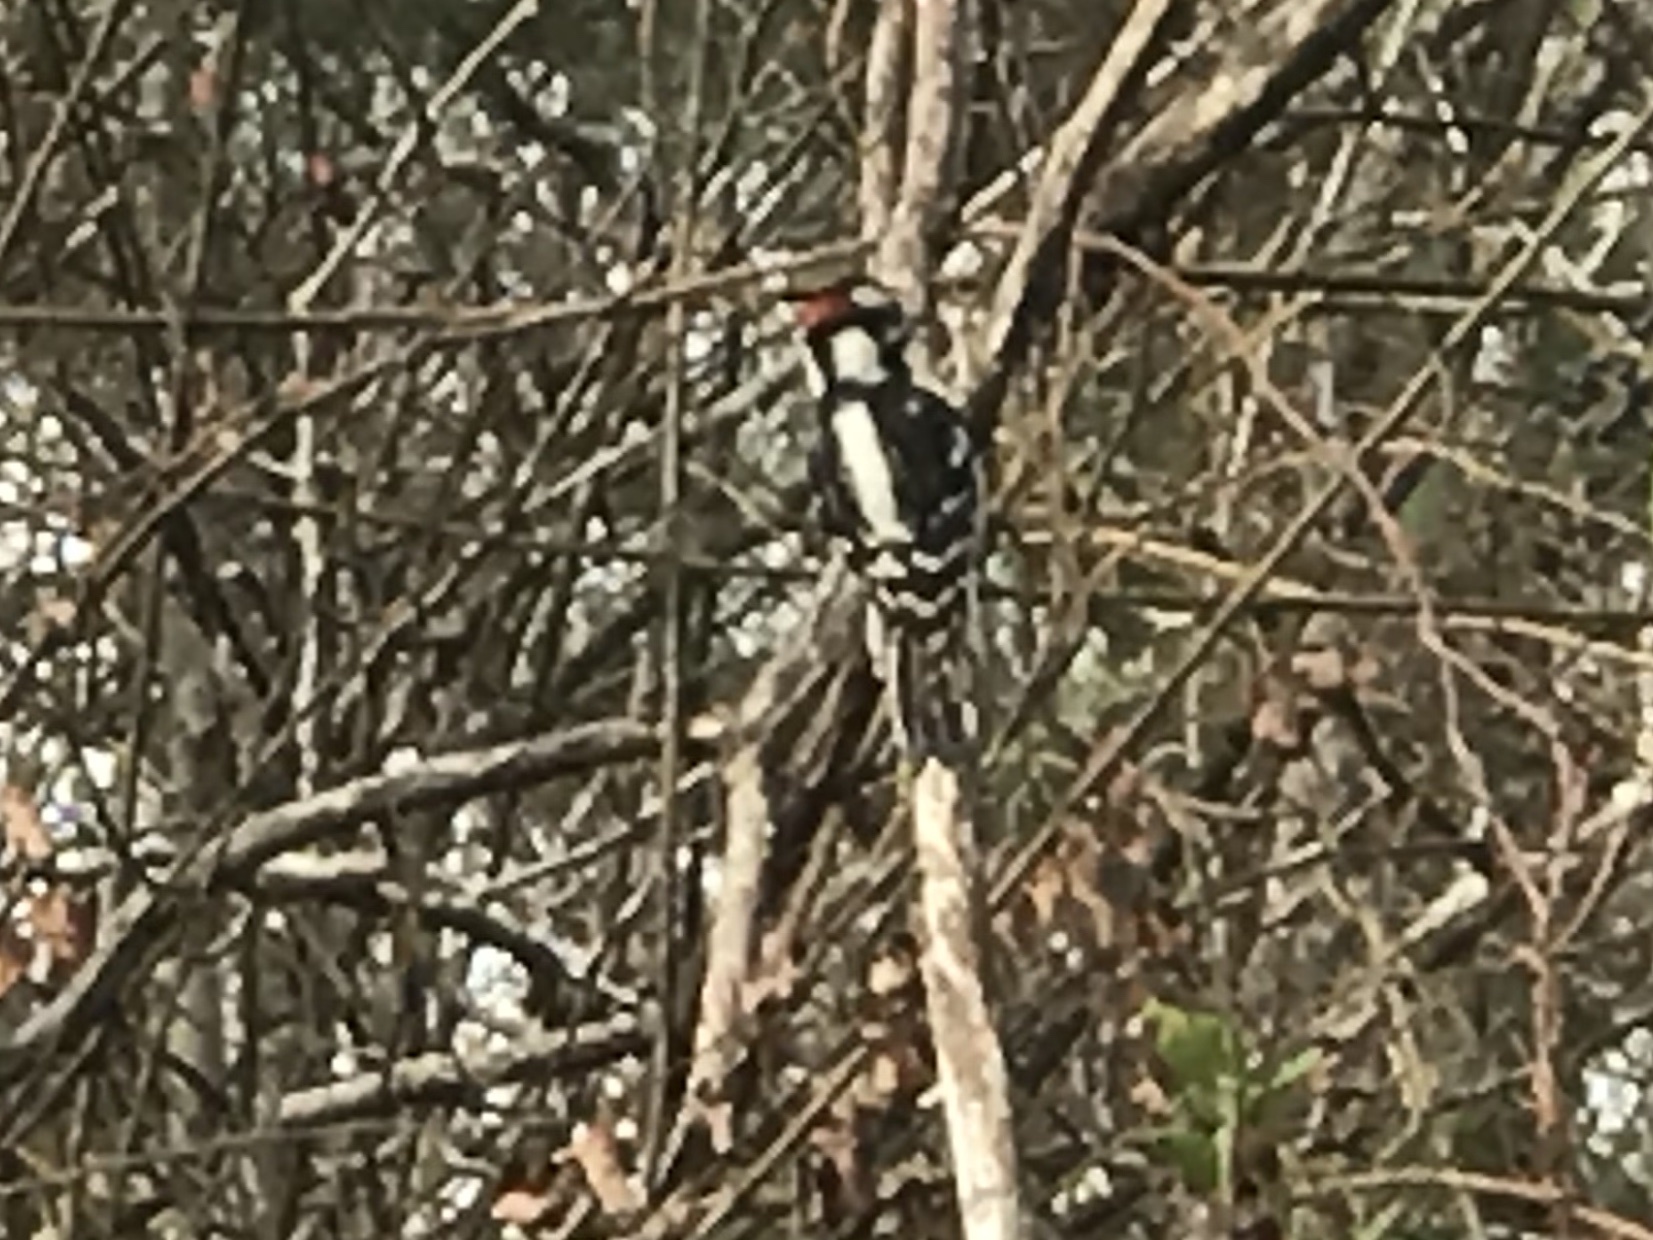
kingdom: Animalia
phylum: Chordata
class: Aves
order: Piciformes
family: Picidae
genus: Dryobates
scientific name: Dryobates pubescens
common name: Downy woodpecker
